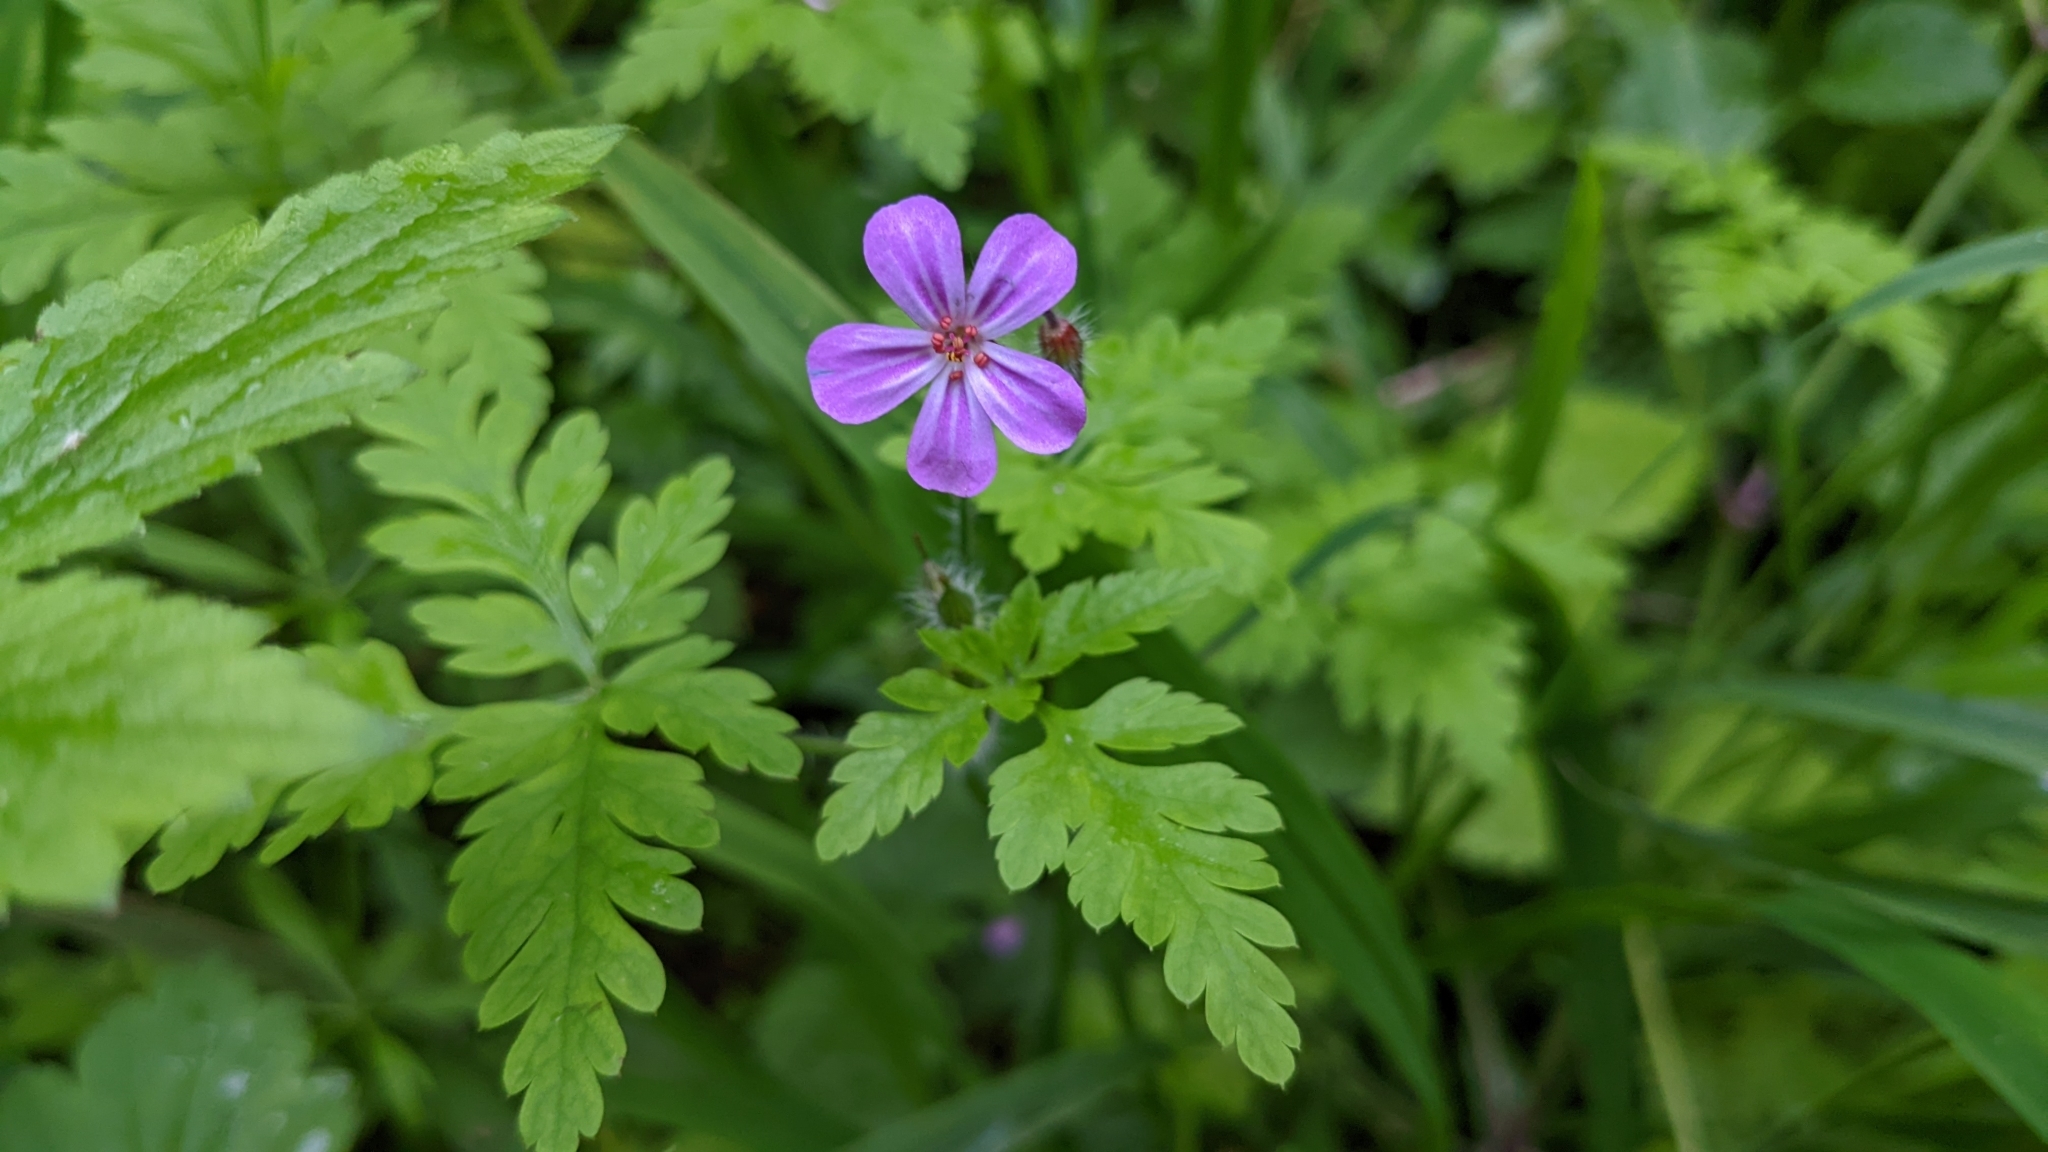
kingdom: Plantae
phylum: Tracheophyta
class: Magnoliopsida
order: Geraniales
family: Geraniaceae
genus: Geranium
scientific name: Geranium robertianum
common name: Herb-robert
